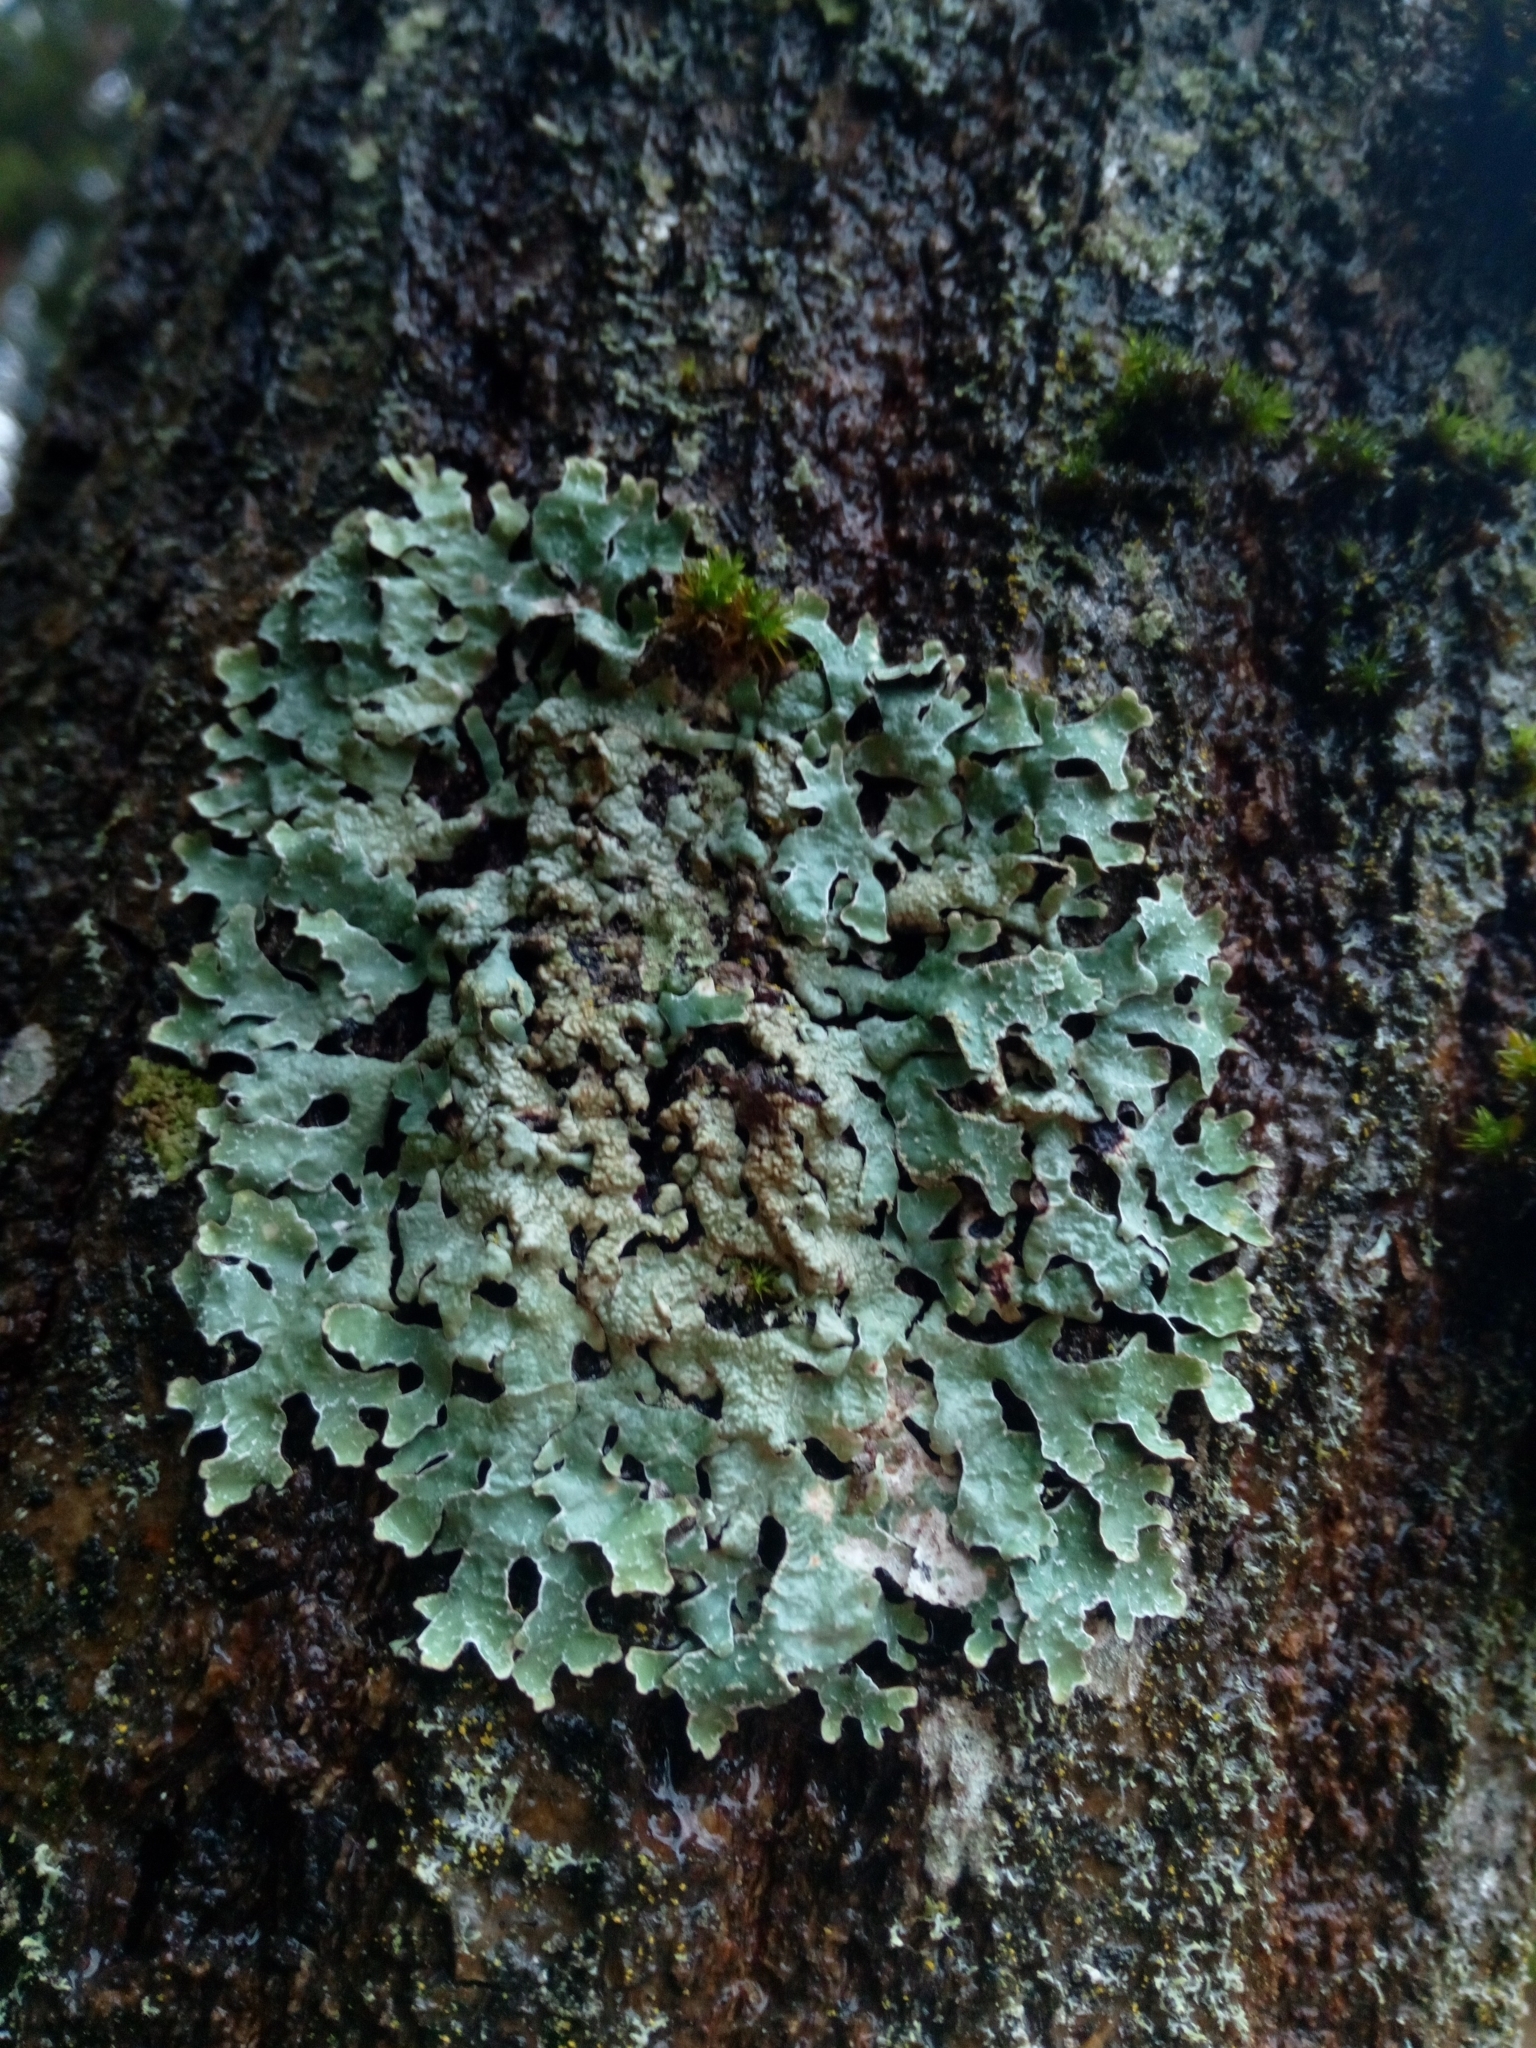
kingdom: Fungi
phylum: Ascomycota
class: Lecanoromycetes
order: Lecanorales
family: Parmeliaceae
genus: Parmelia
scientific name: Parmelia sulcata
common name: Netted shield lichen
